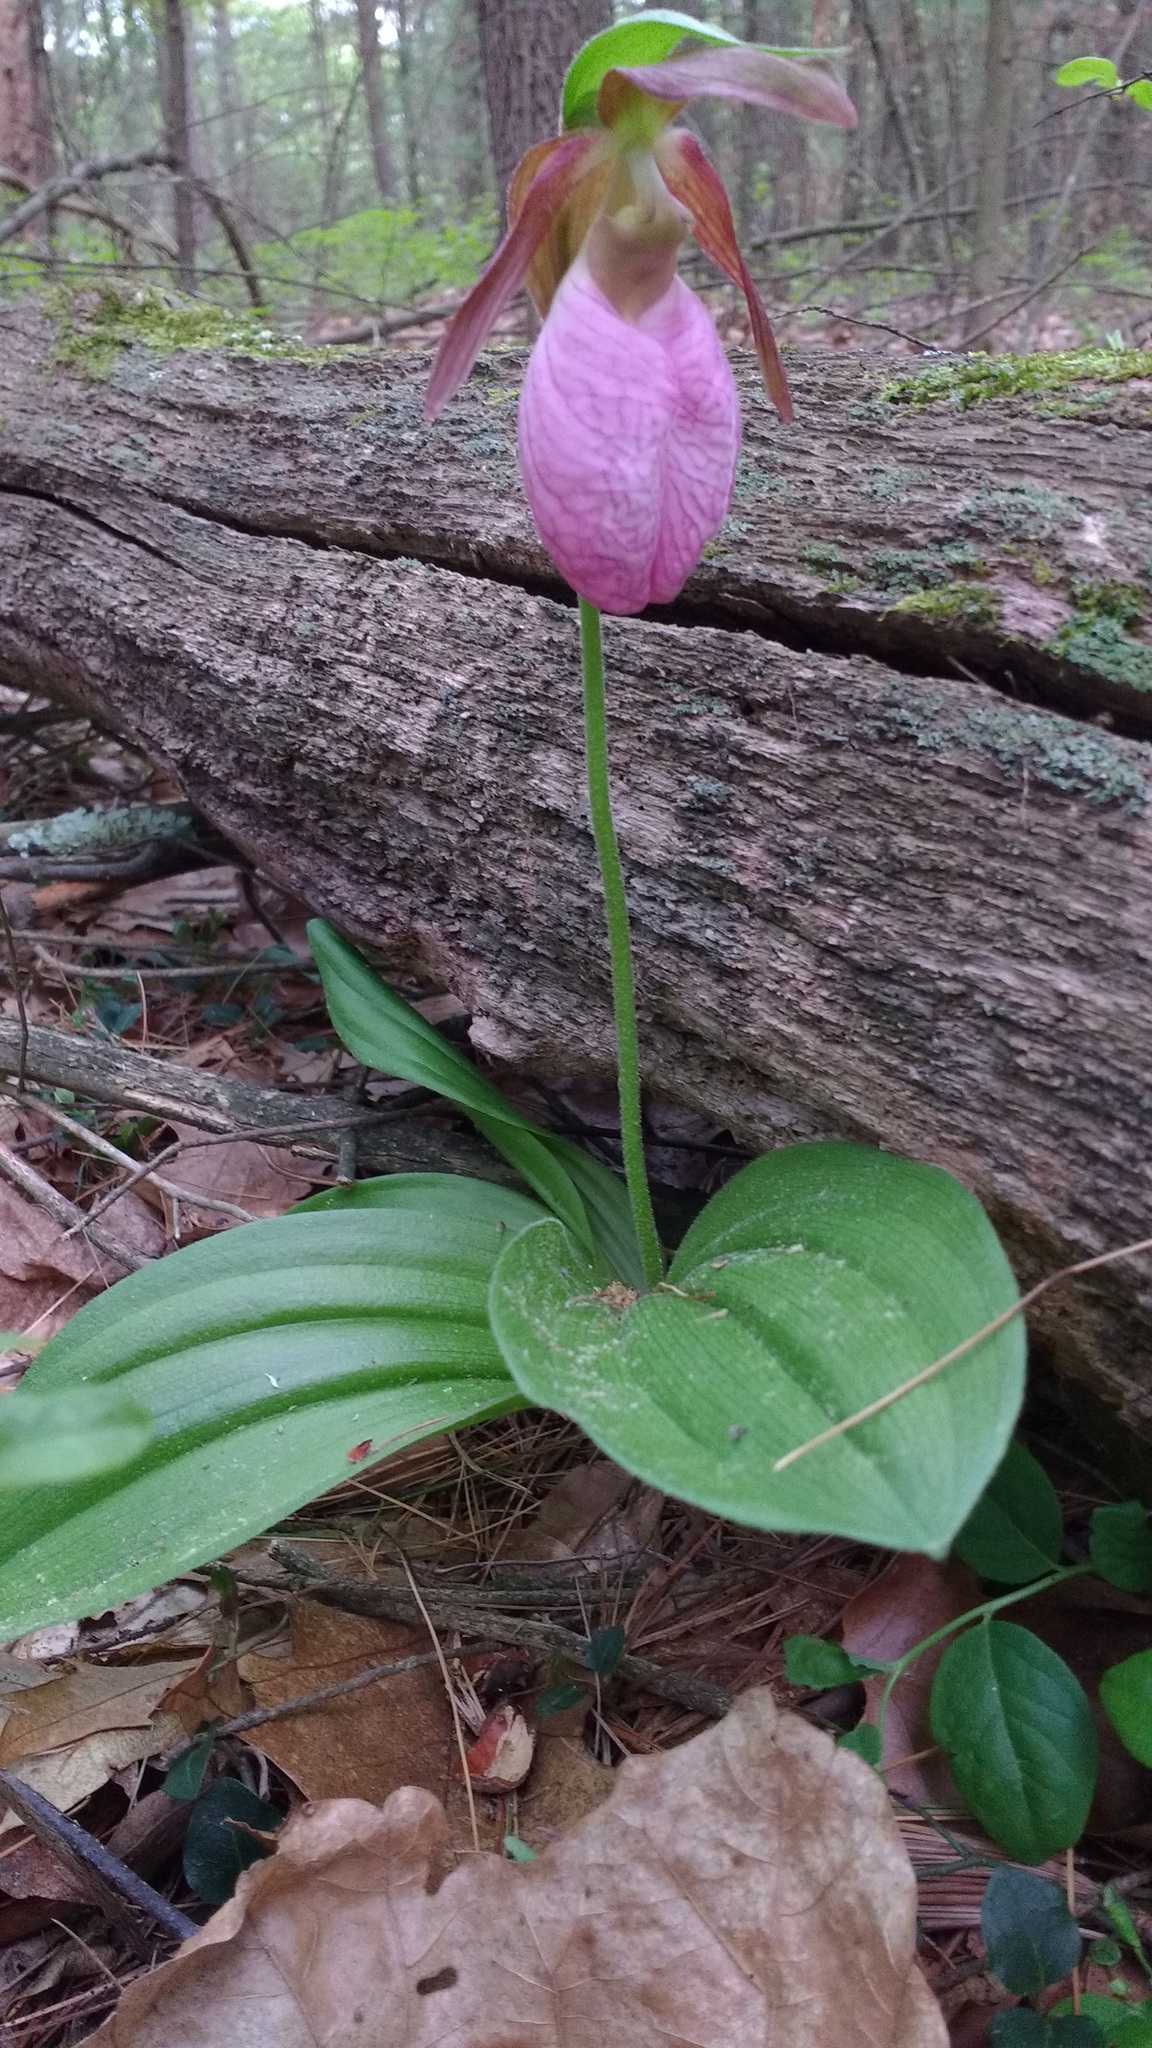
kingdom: Plantae
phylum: Tracheophyta
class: Liliopsida
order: Asparagales
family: Orchidaceae
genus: Cypripedium
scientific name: Cypripedium acaule
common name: Pink lady's-slipper
